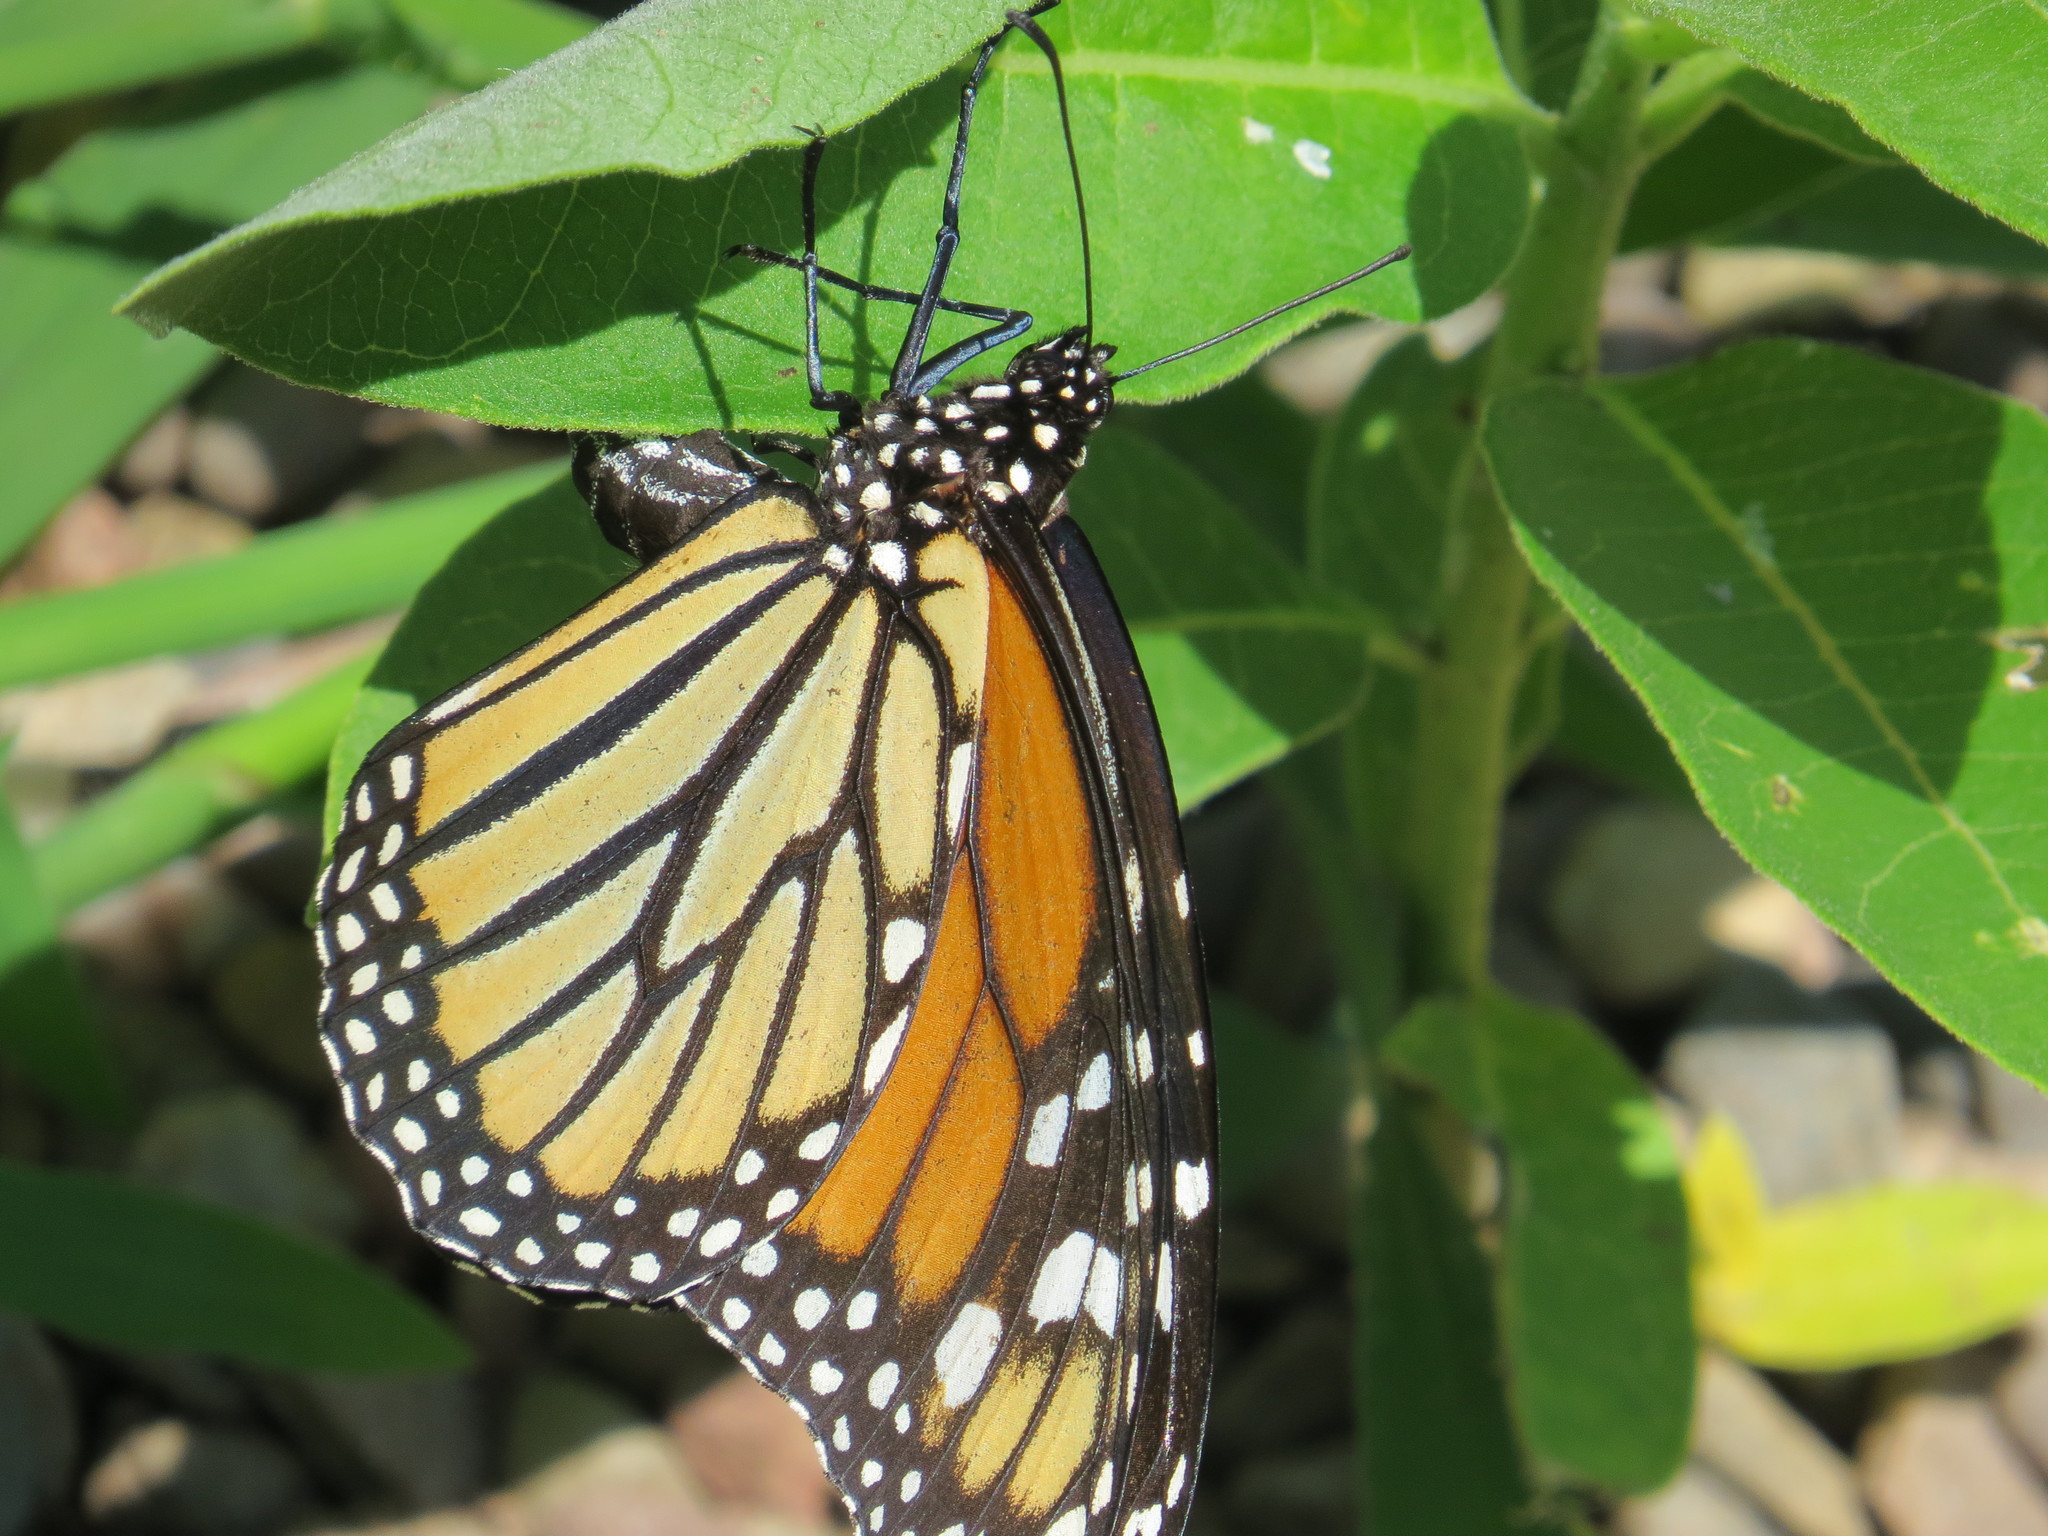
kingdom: Animalia
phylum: Arthropoda
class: Insecta
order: Lepidoptera
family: Nymphalidae
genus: Danaus
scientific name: Danaus plexippus
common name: Monarch
